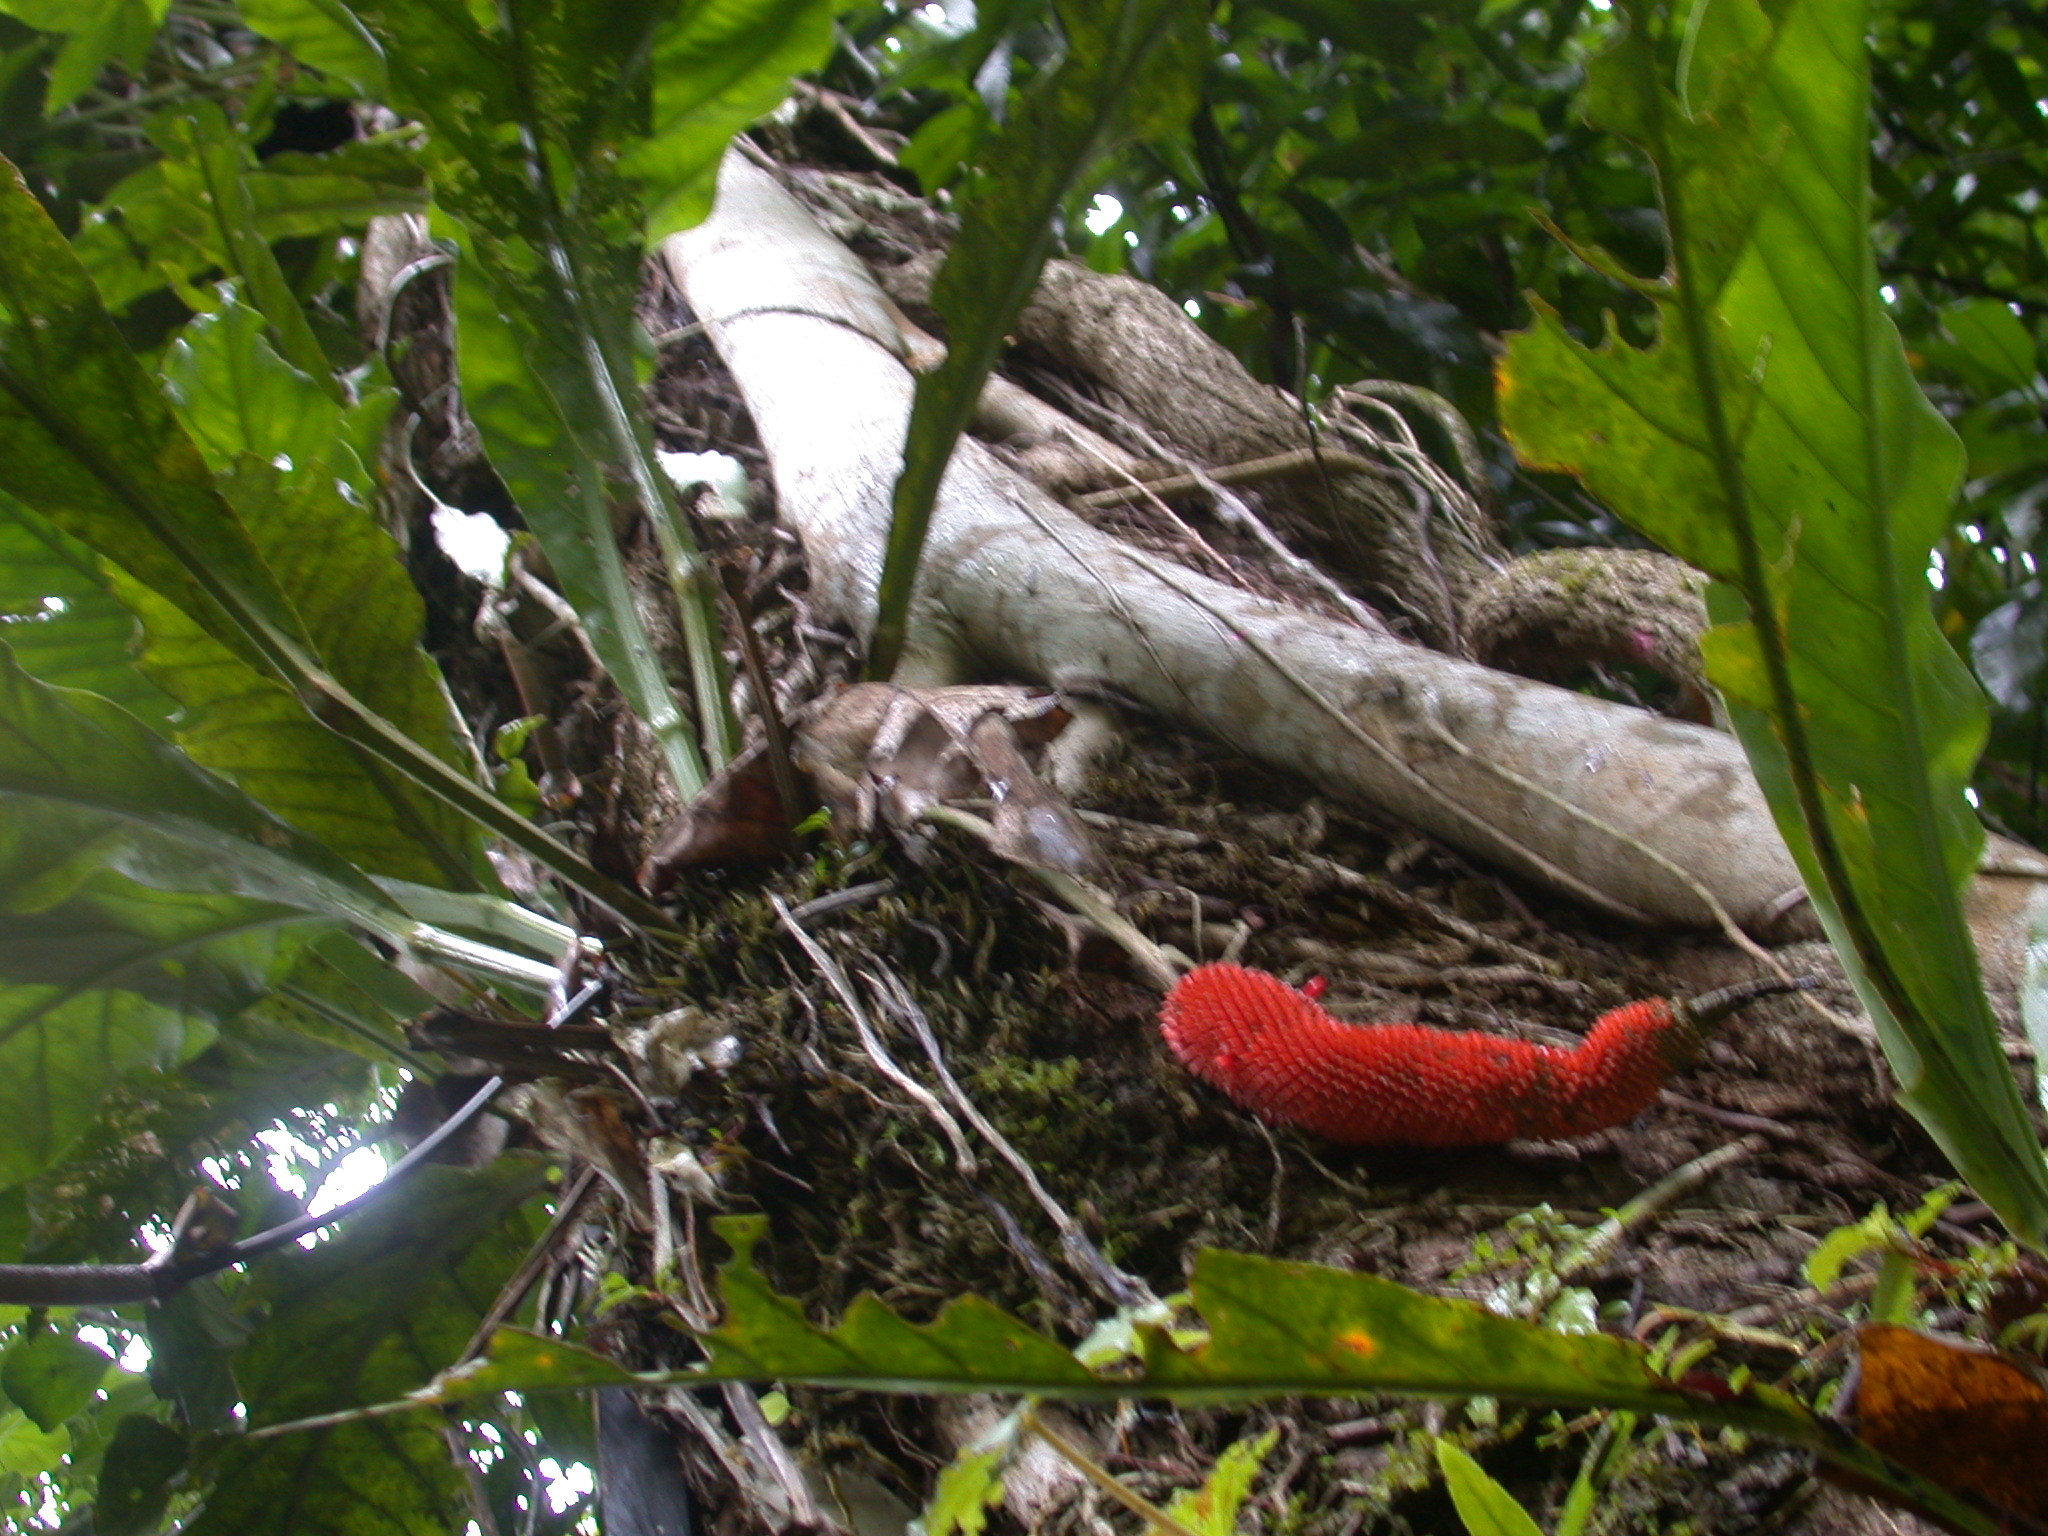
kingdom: Plantae
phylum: Tracheophyta
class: Liliopsida
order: Alismatales
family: Araceae
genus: Anthurium
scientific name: Anthurium schlechtendalii
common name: Laceleaf
